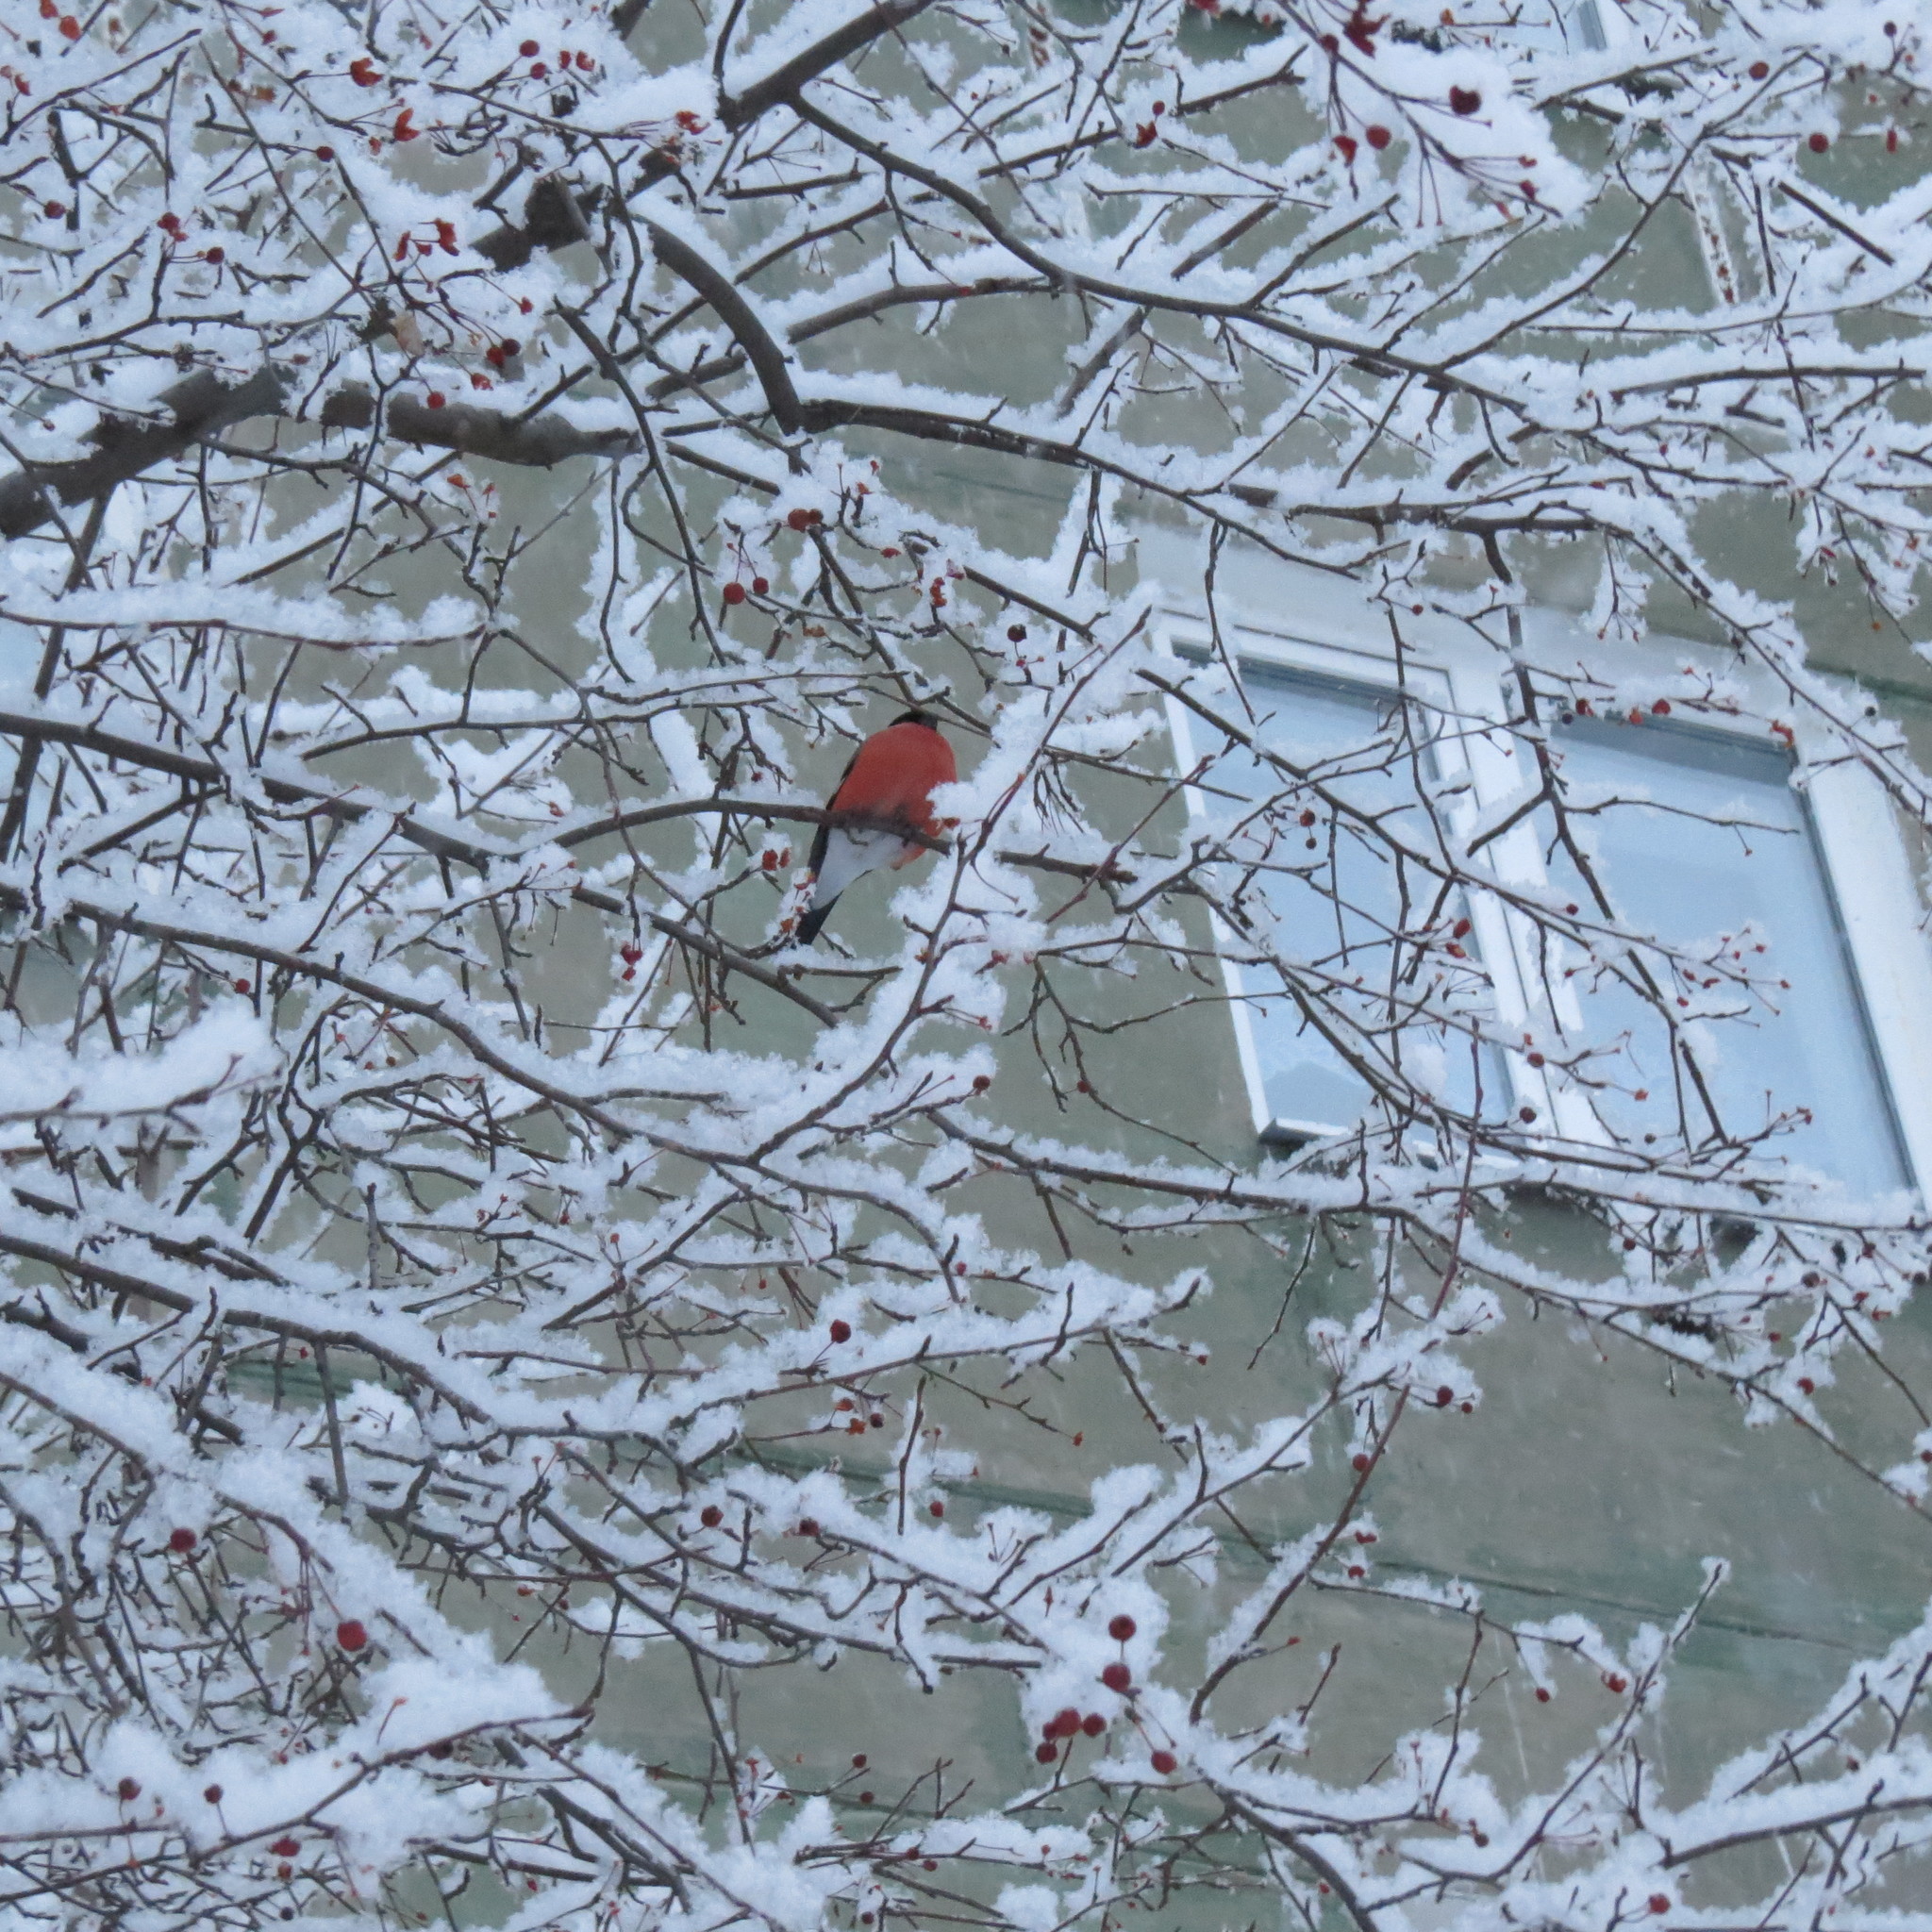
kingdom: Animalia
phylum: Chordata
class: Aves
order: Passeriformes
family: Fringillidae
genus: Pyrrhula
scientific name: Pyrrhula pyrrhula
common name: Eurasian bullfinch
